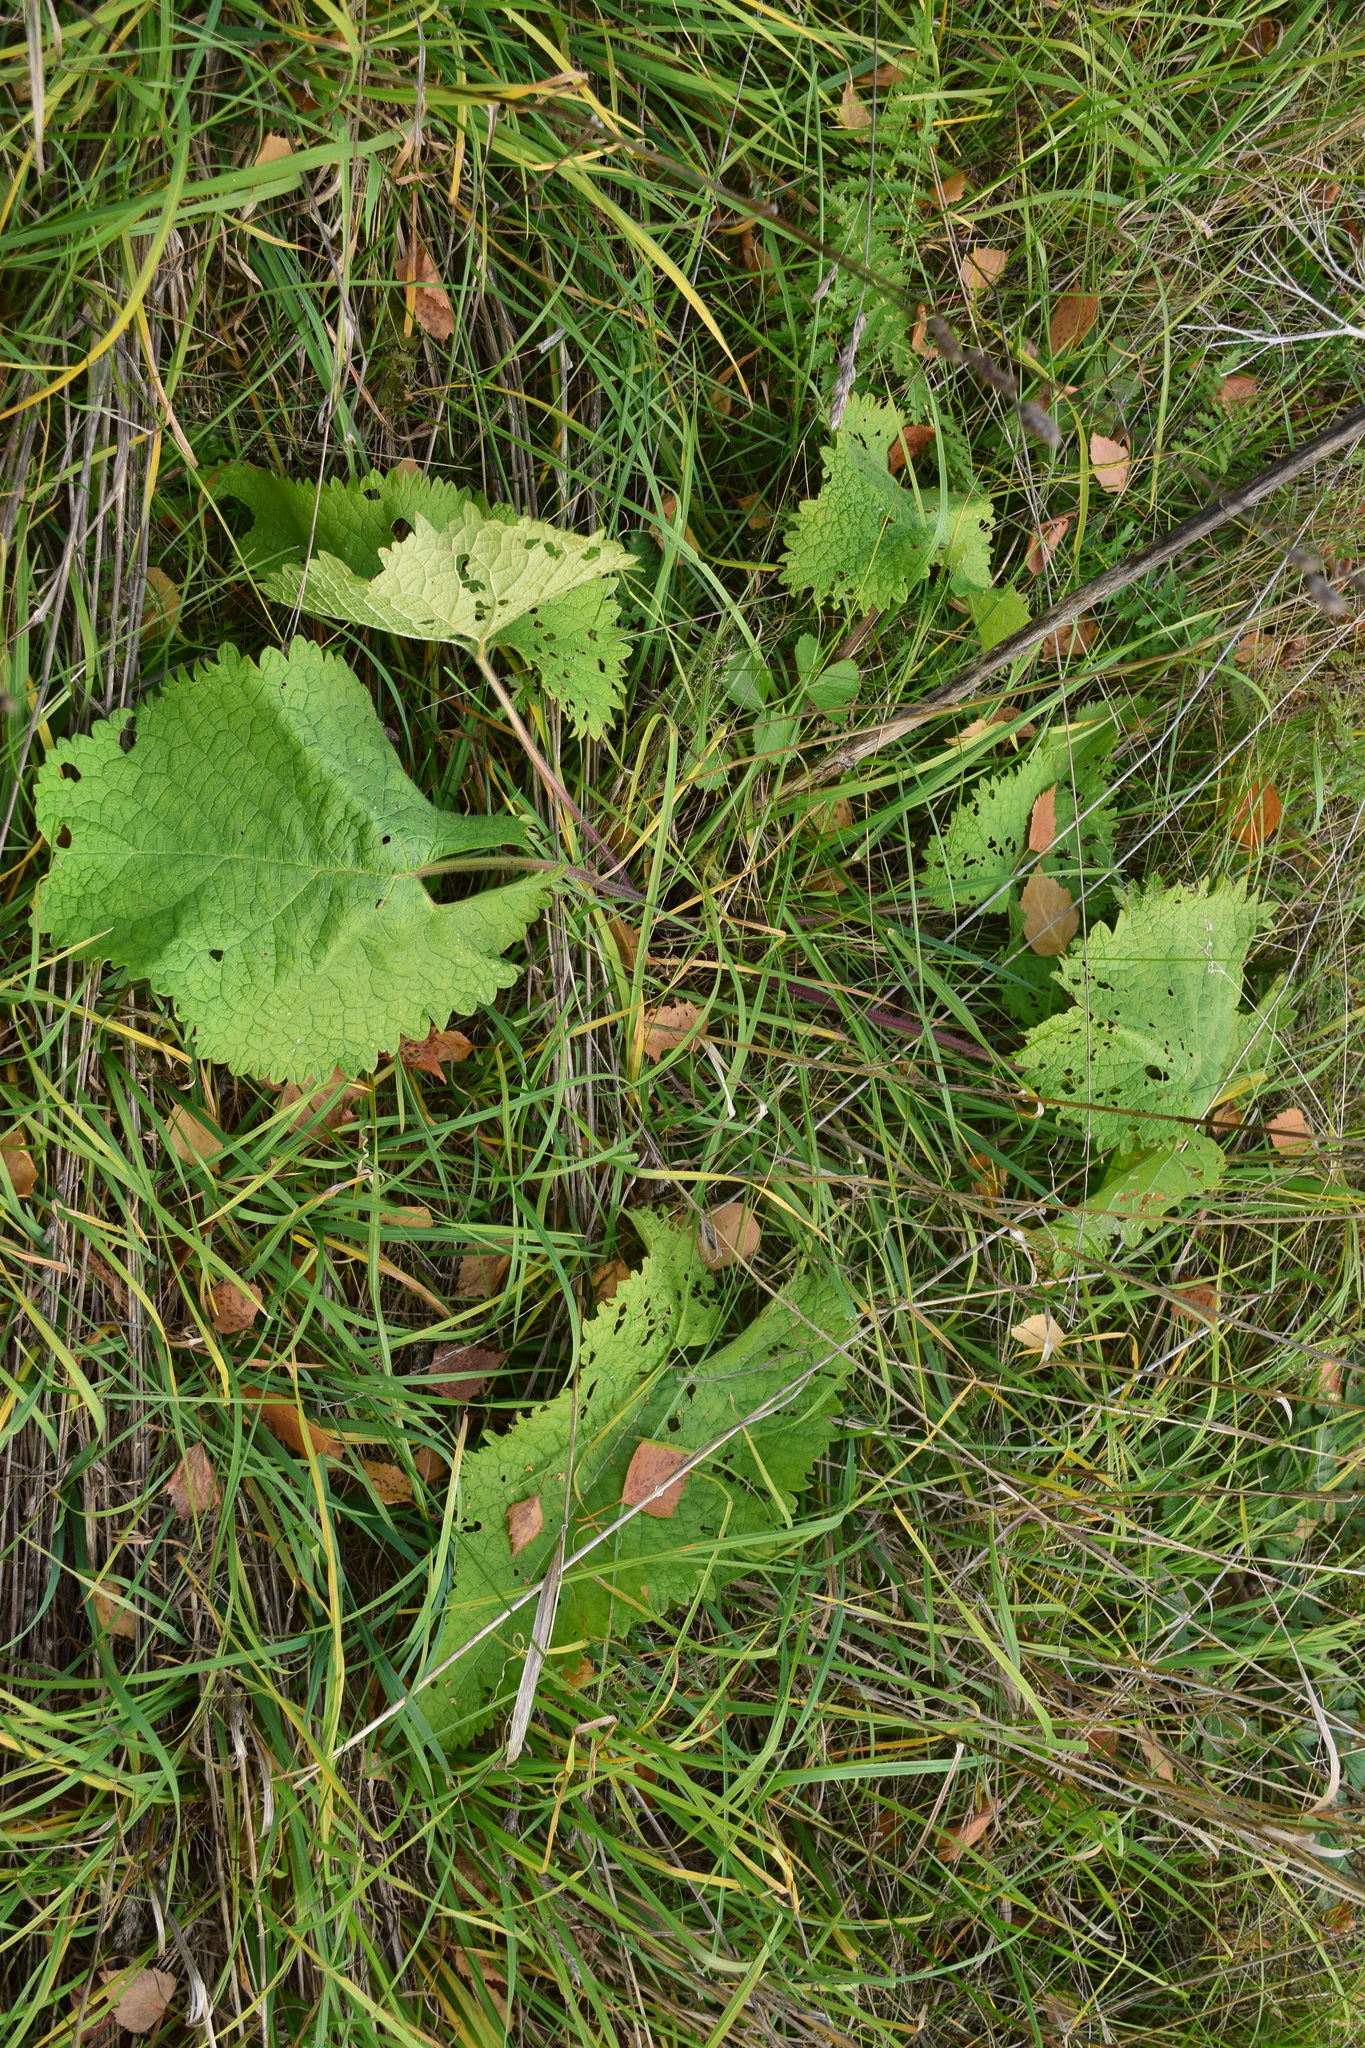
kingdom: Plantae
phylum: Tracheophyta
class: Magnoliopsida
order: Lamiales
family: Lamiaceae
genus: Phlomoides
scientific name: Phlomoides tuberosa
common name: Tuberous jerusalem sage
